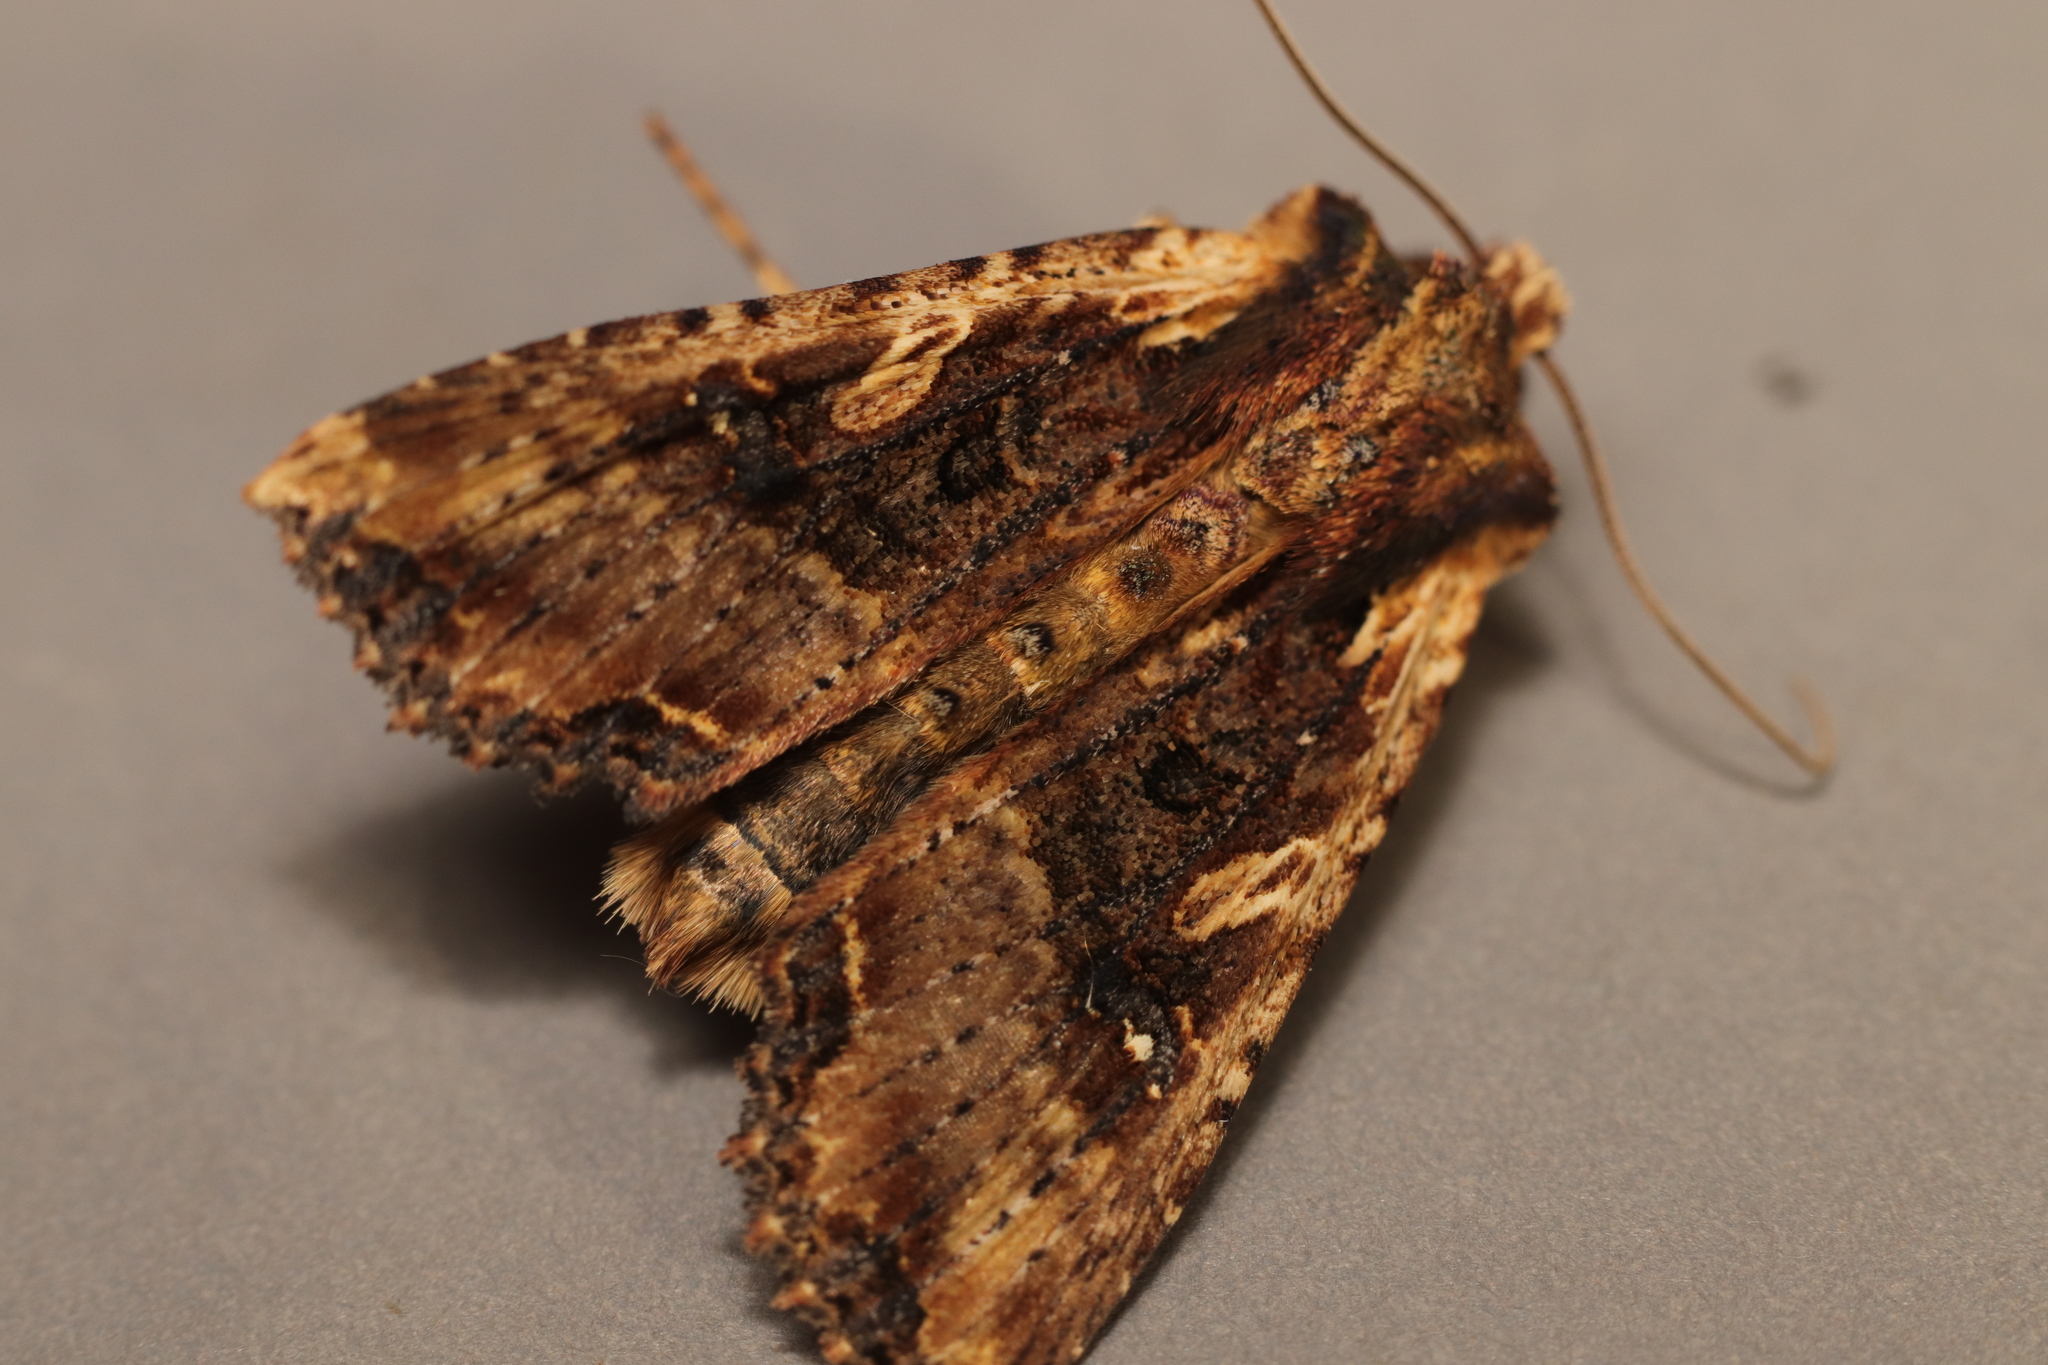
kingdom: Animalia
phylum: Arthropoda
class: Insecta
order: Lepidoptera
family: Noctuidae
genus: Meterana
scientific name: Meterana stipata
